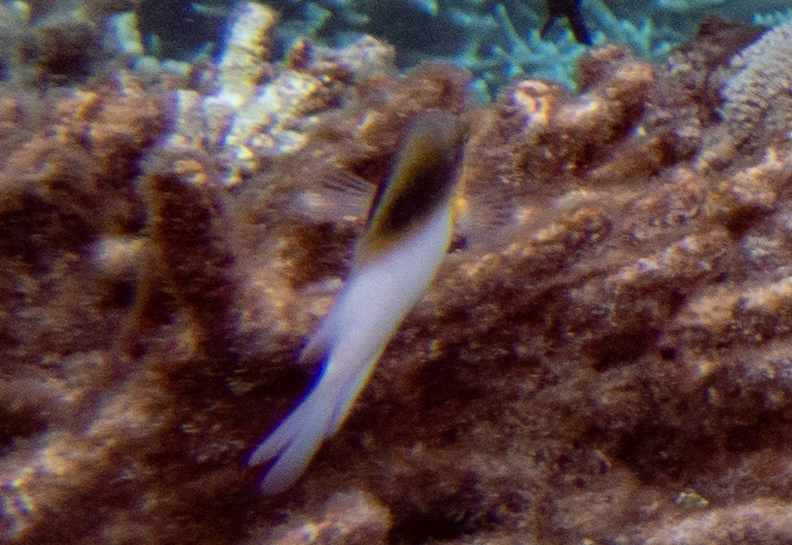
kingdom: Animalia
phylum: Chordata
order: Perciformes
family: Pomacentridae
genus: Dischistodus
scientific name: Dischistodus melanotus
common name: Black-vent damsel
